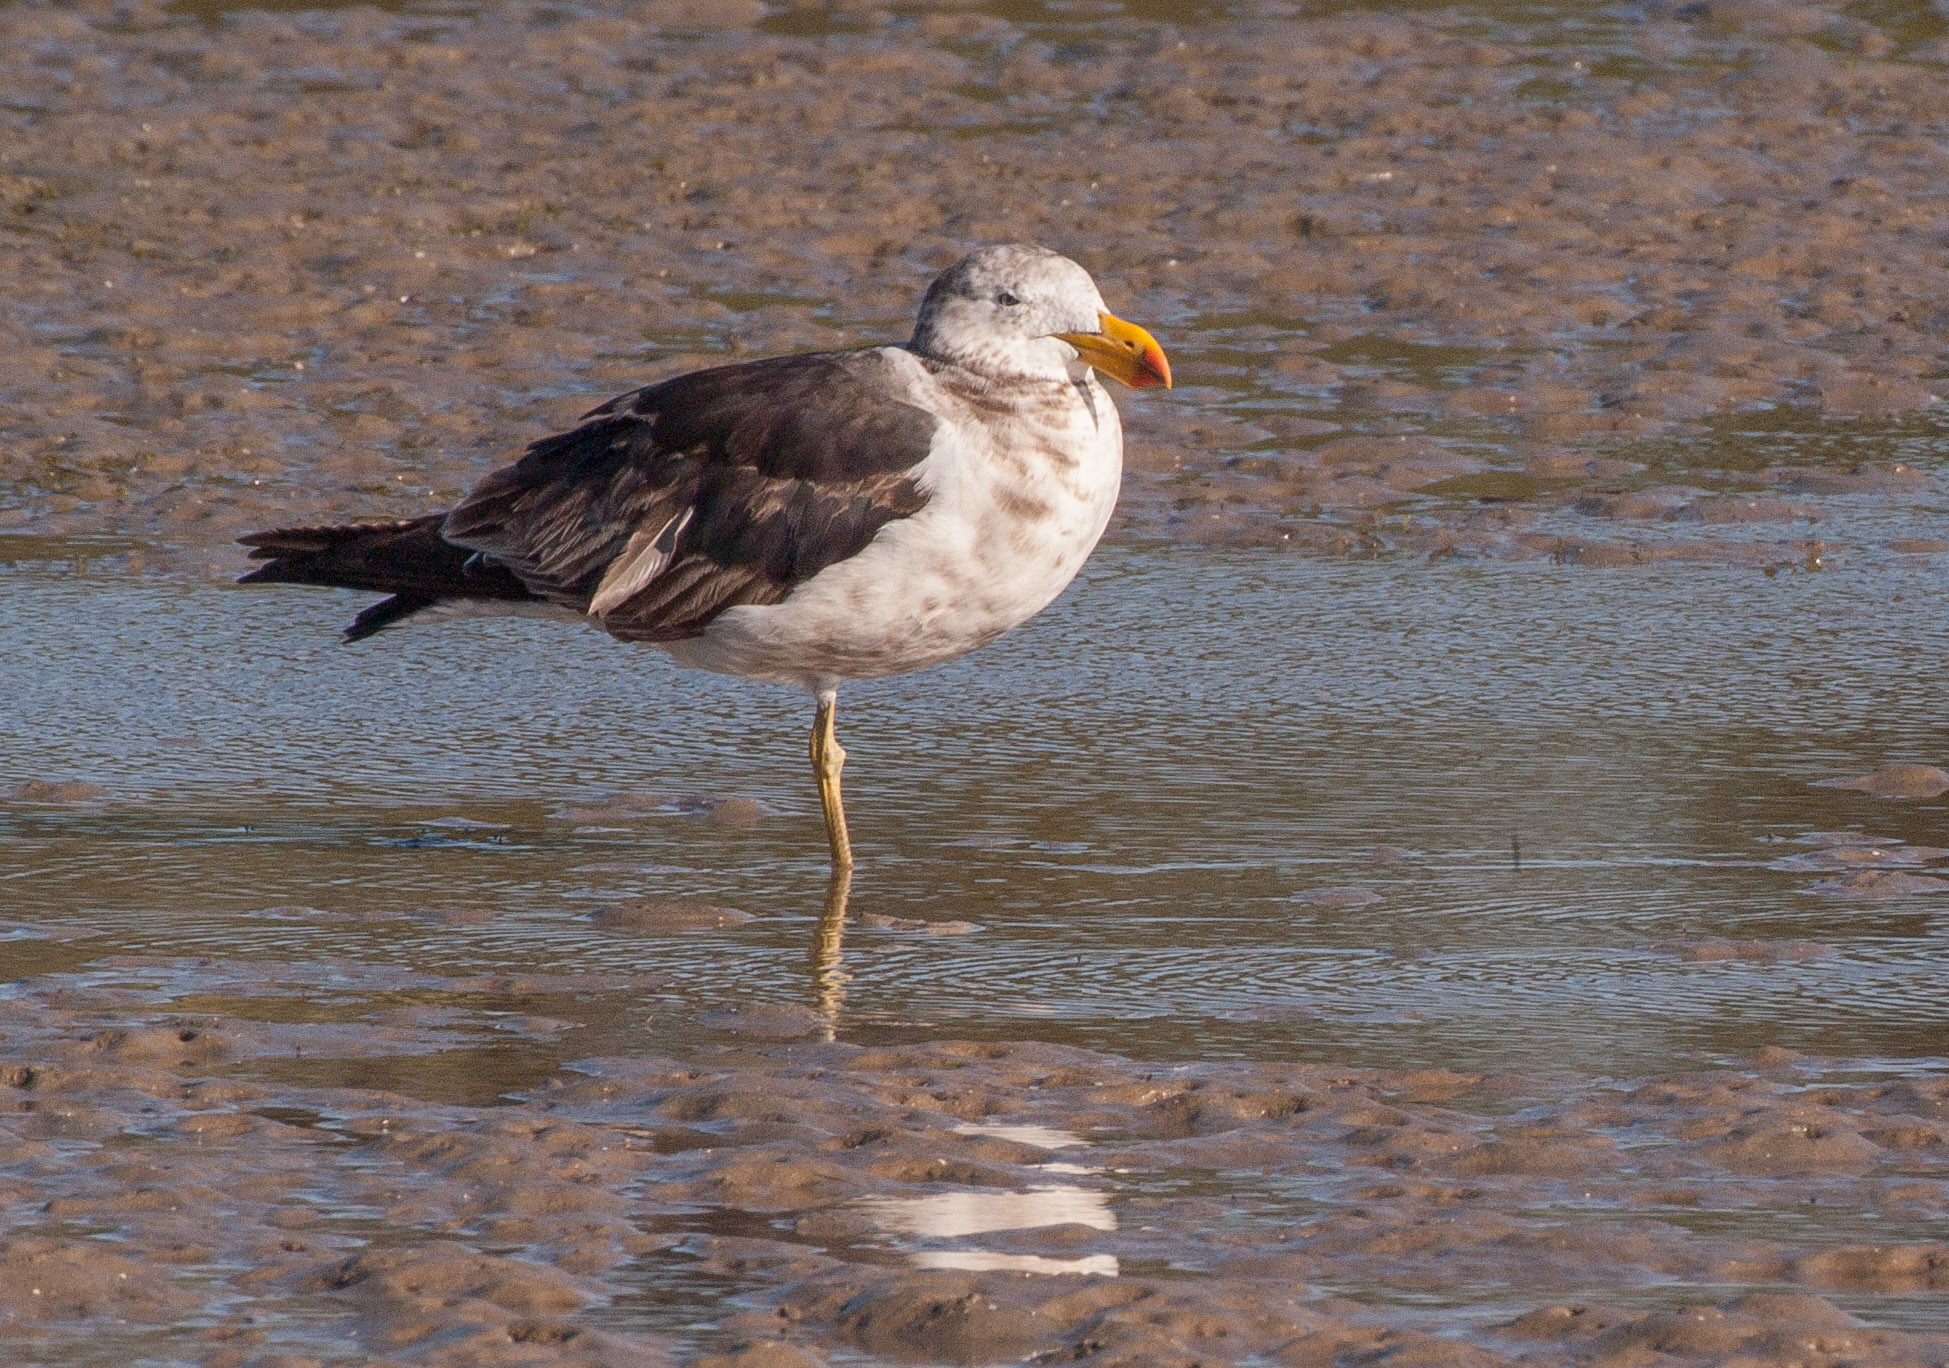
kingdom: Animalia
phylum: Chordata
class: Aves
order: Charadriiformes
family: Laridae
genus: Larus
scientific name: Larus pacificus
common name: Pacific gull
